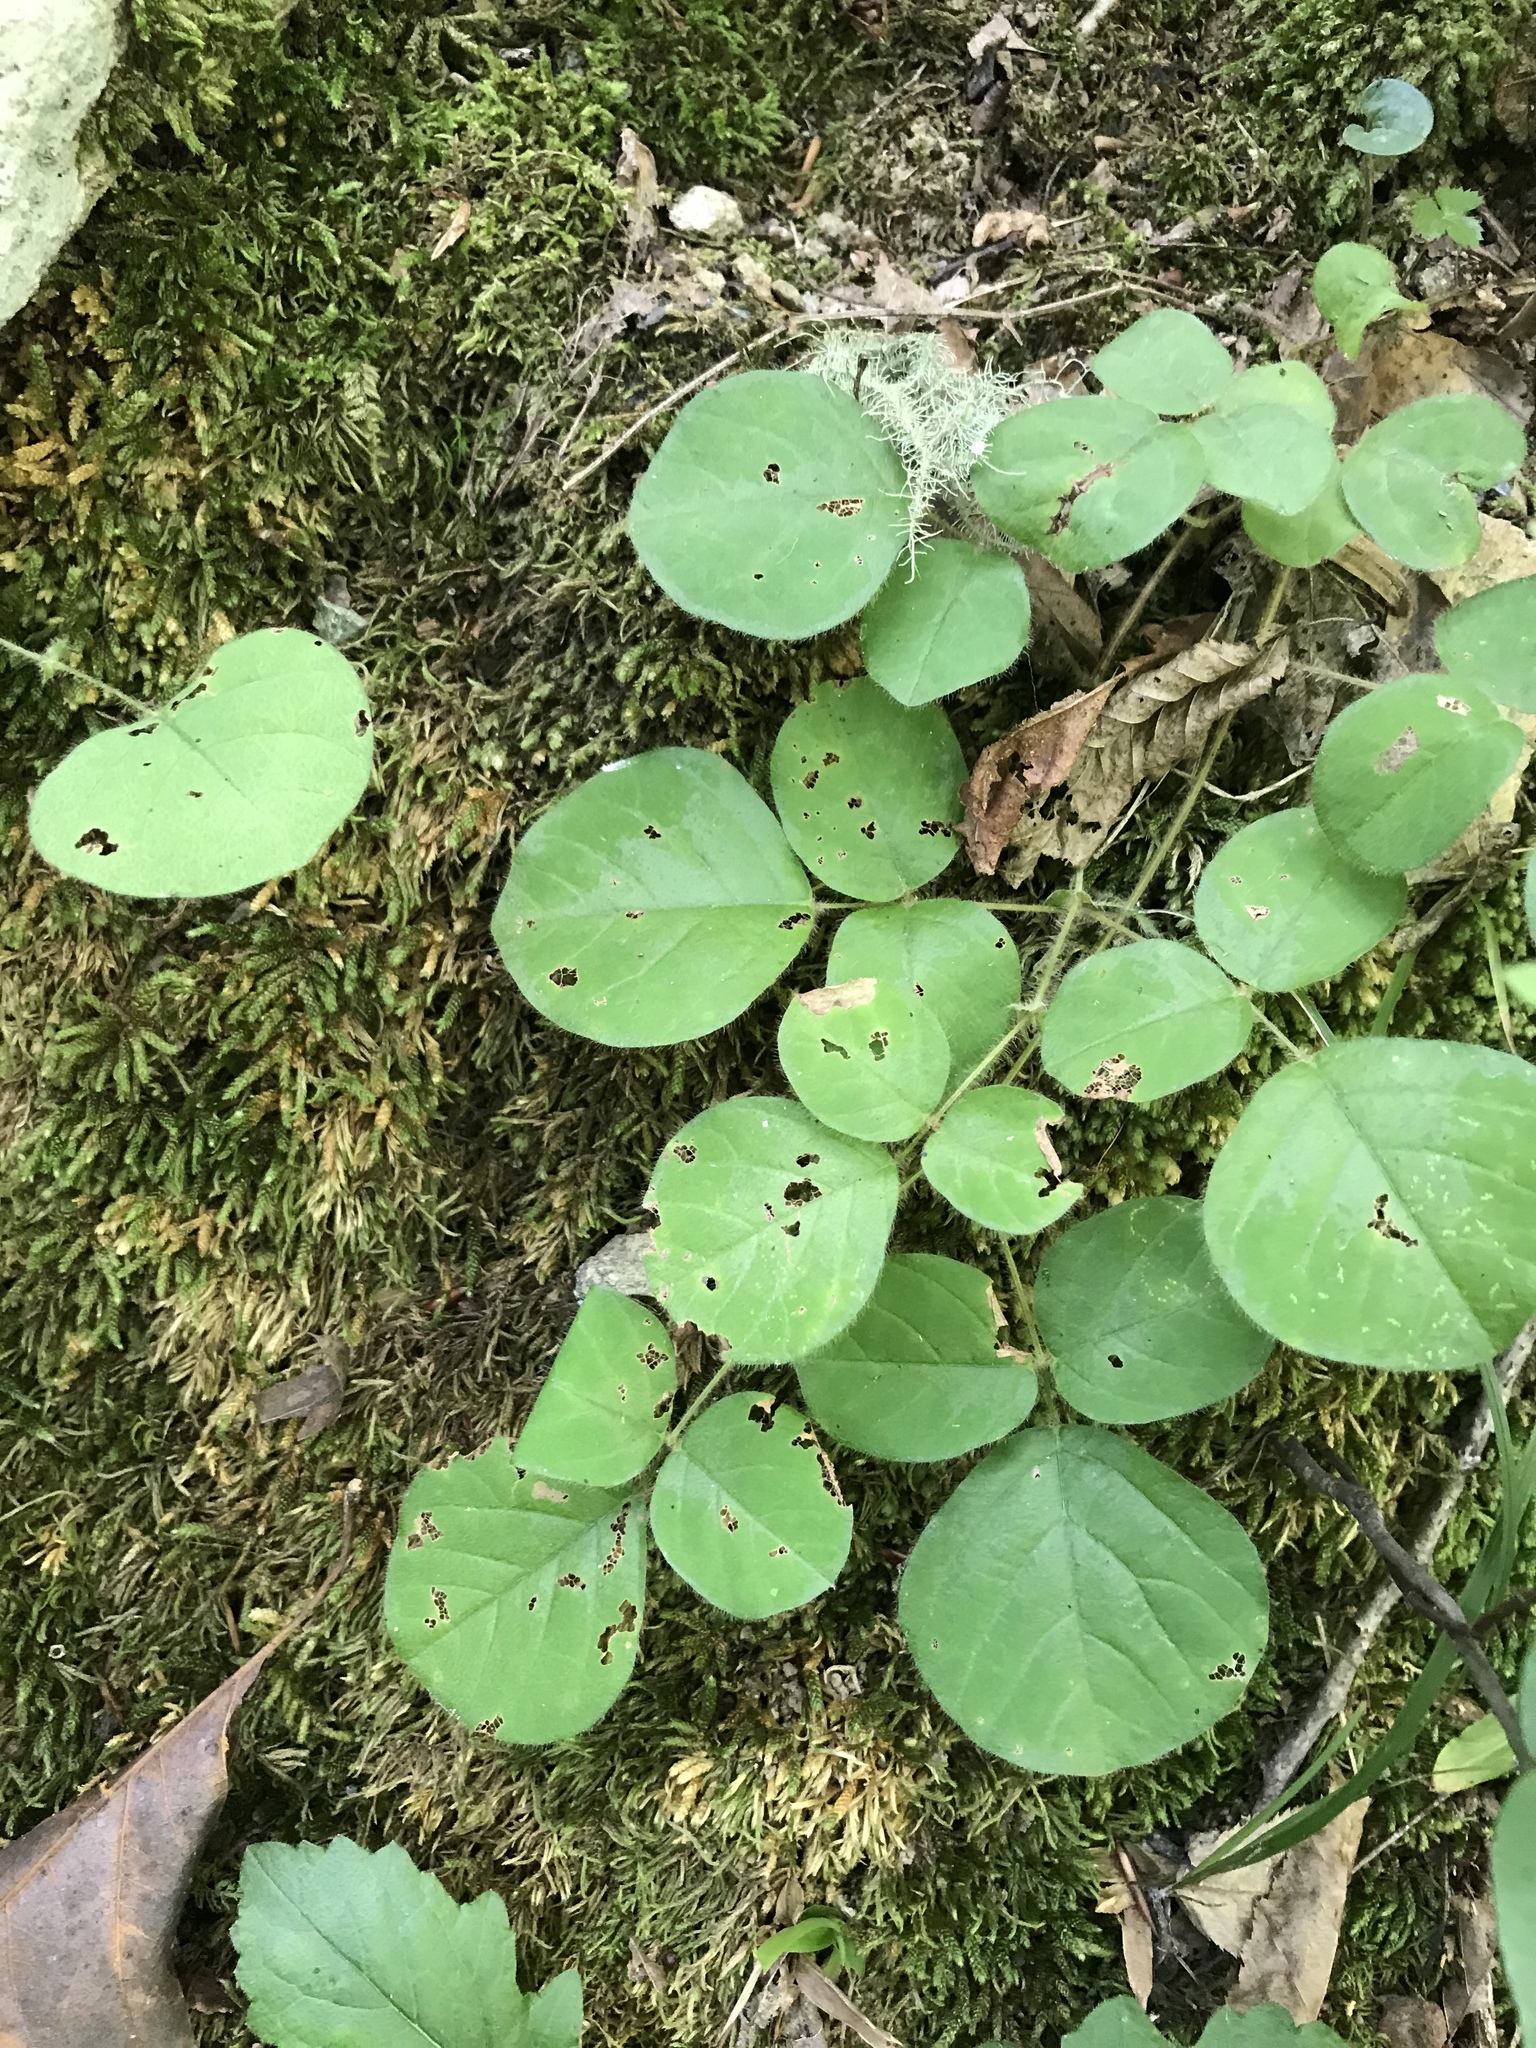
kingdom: Plantae
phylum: Tracheophyta
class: Magnoliopsida
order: Fabales
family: Fabaceae
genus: Desmodium
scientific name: Desmodium rotundifolium
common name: Dollarleaf
